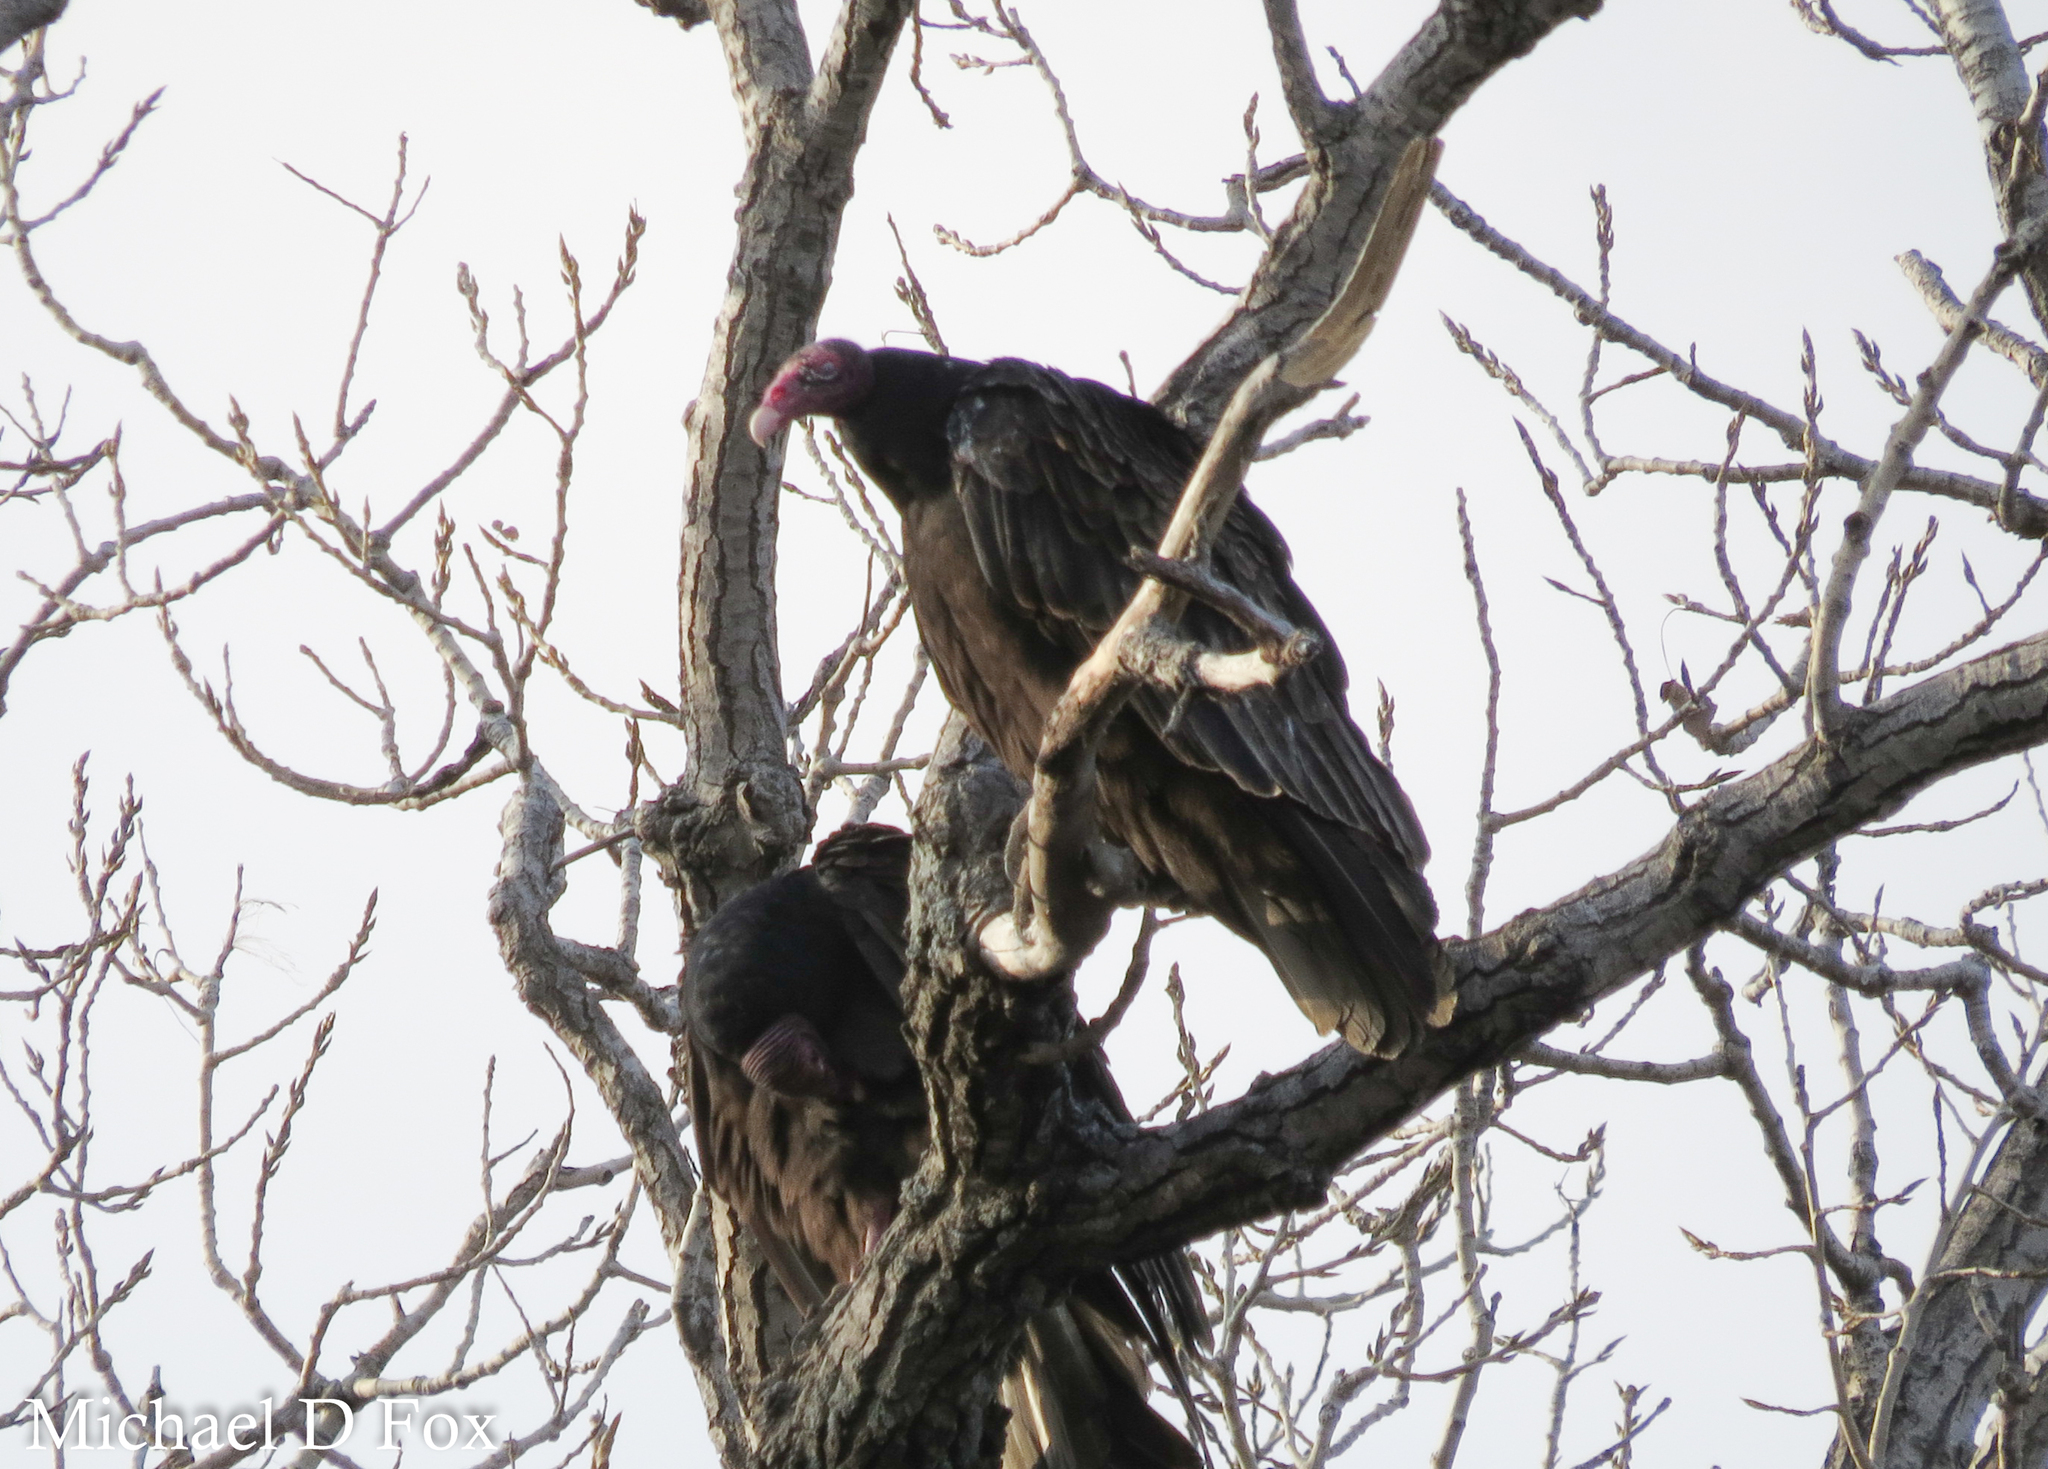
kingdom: Animalia
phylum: Chordata
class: Aves
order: Accipitriformes
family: Cathartidae
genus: Cathartes
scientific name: Cathartes aura
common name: Turkey vulture
